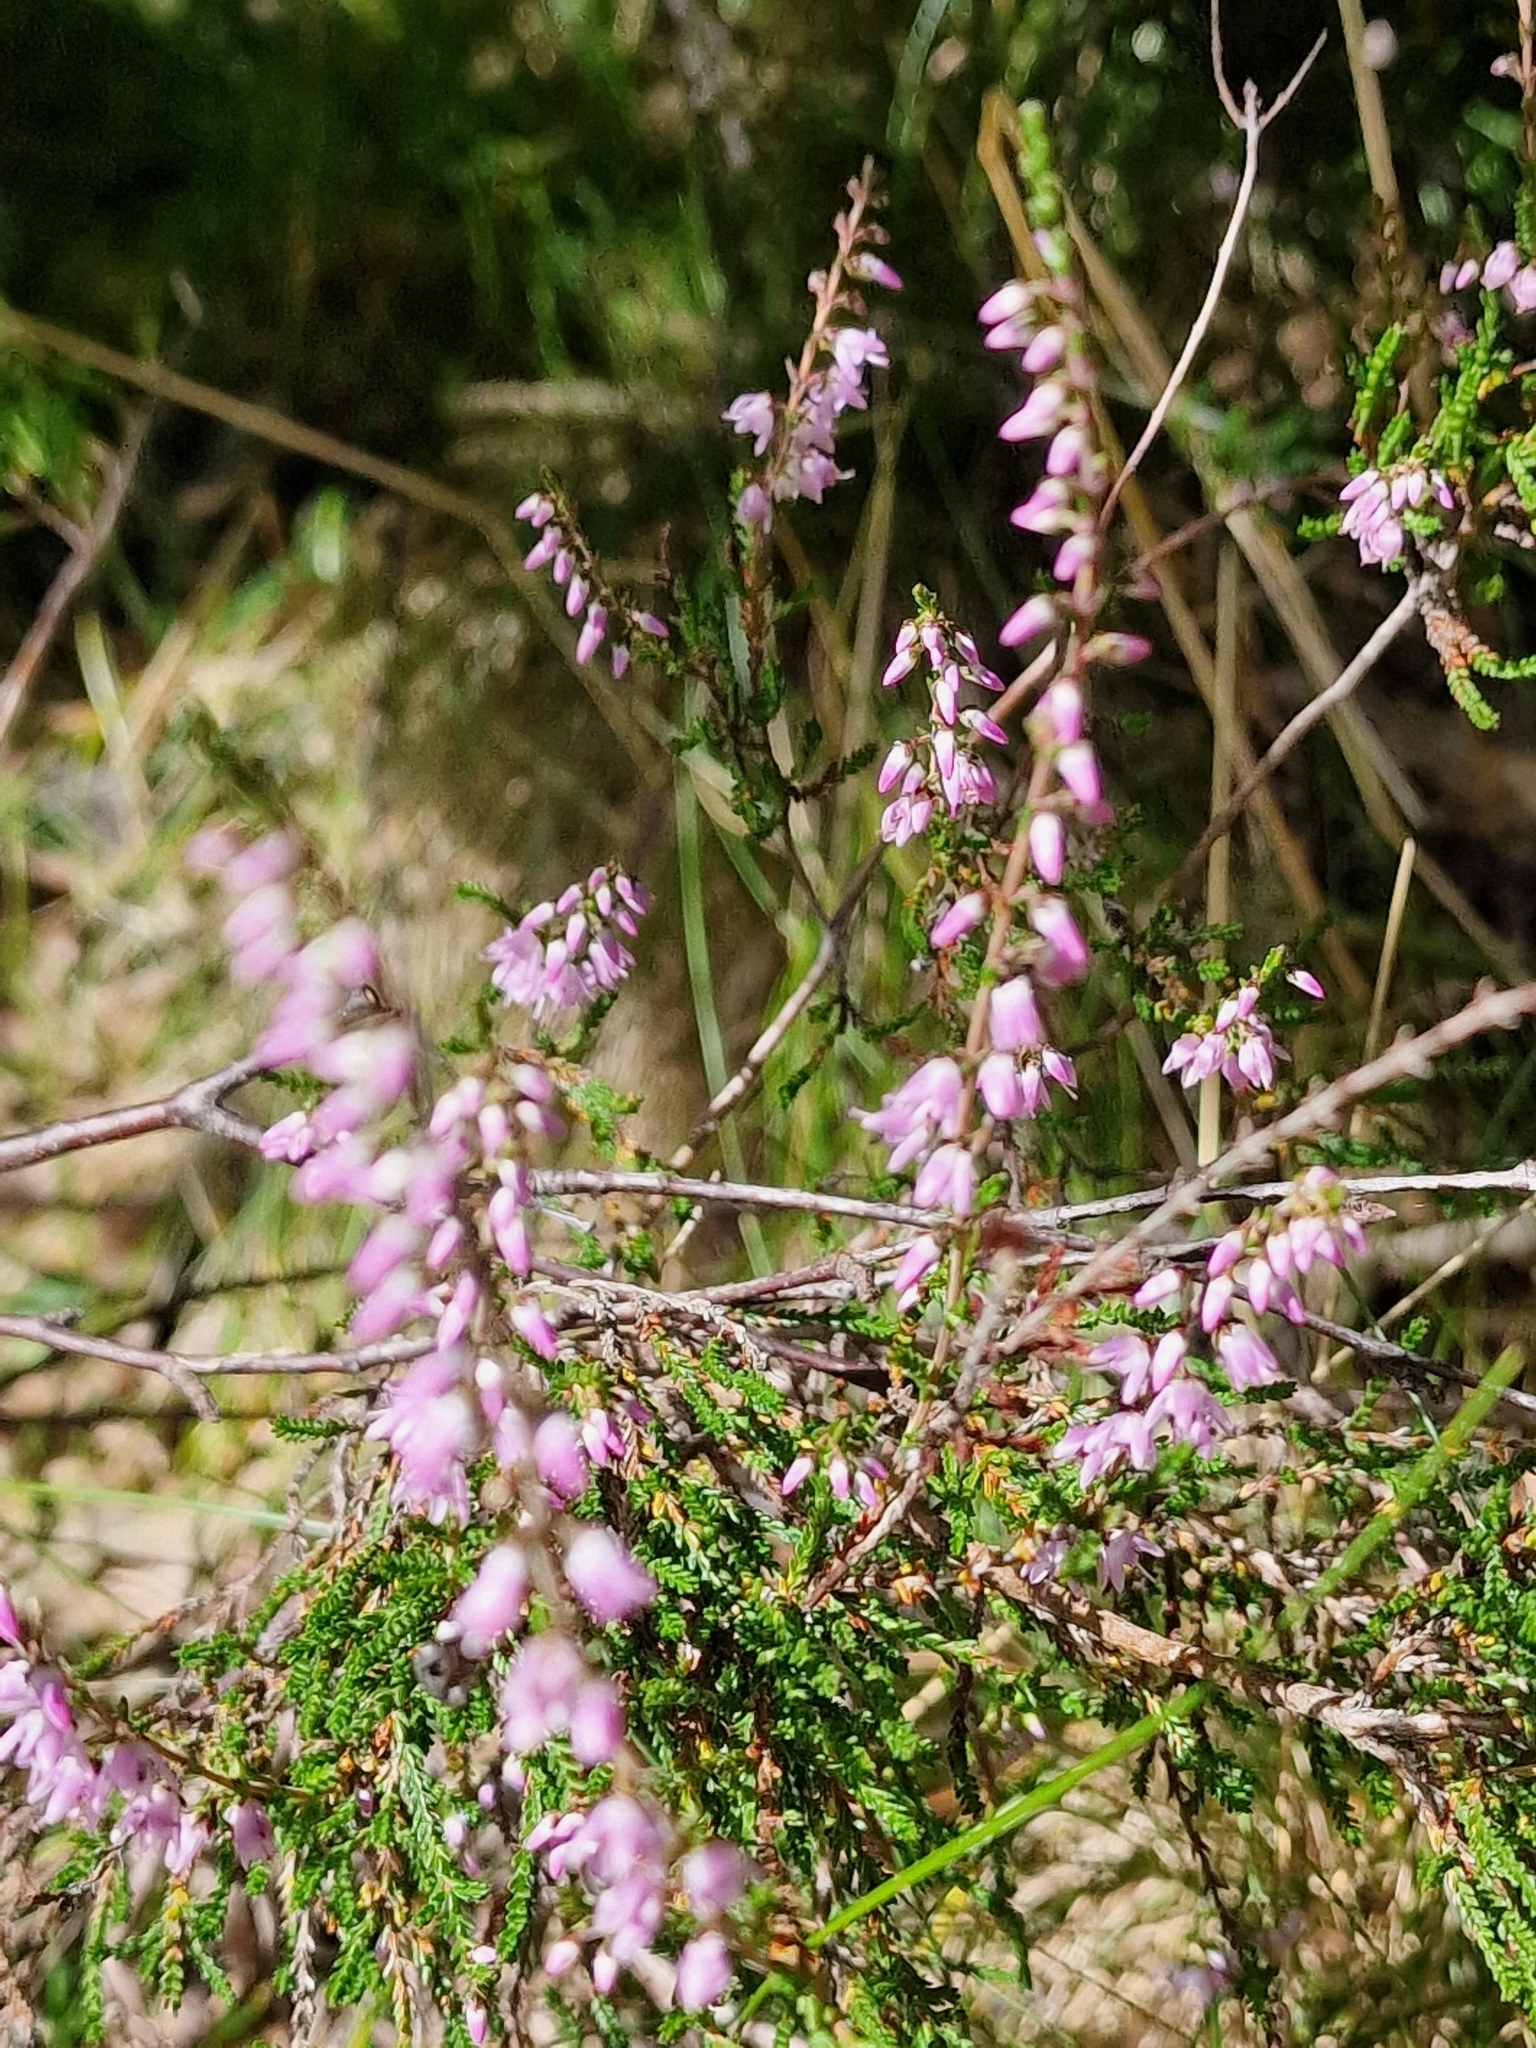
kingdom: Plantae
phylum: Tracheophyta
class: Magnoliopsida
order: Ericales
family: Ericaceae
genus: Calluna
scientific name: Calluna vulgaris
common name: Heather
